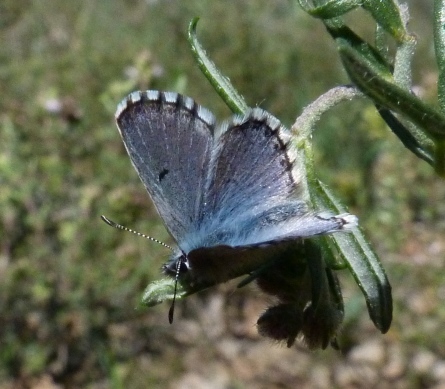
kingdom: Animalia
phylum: Arthropoda
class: Insecta
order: Lepidoptera
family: Lycaenidae
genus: Pseudophilotes
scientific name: Pseudophilotes baton
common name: Baton blue
